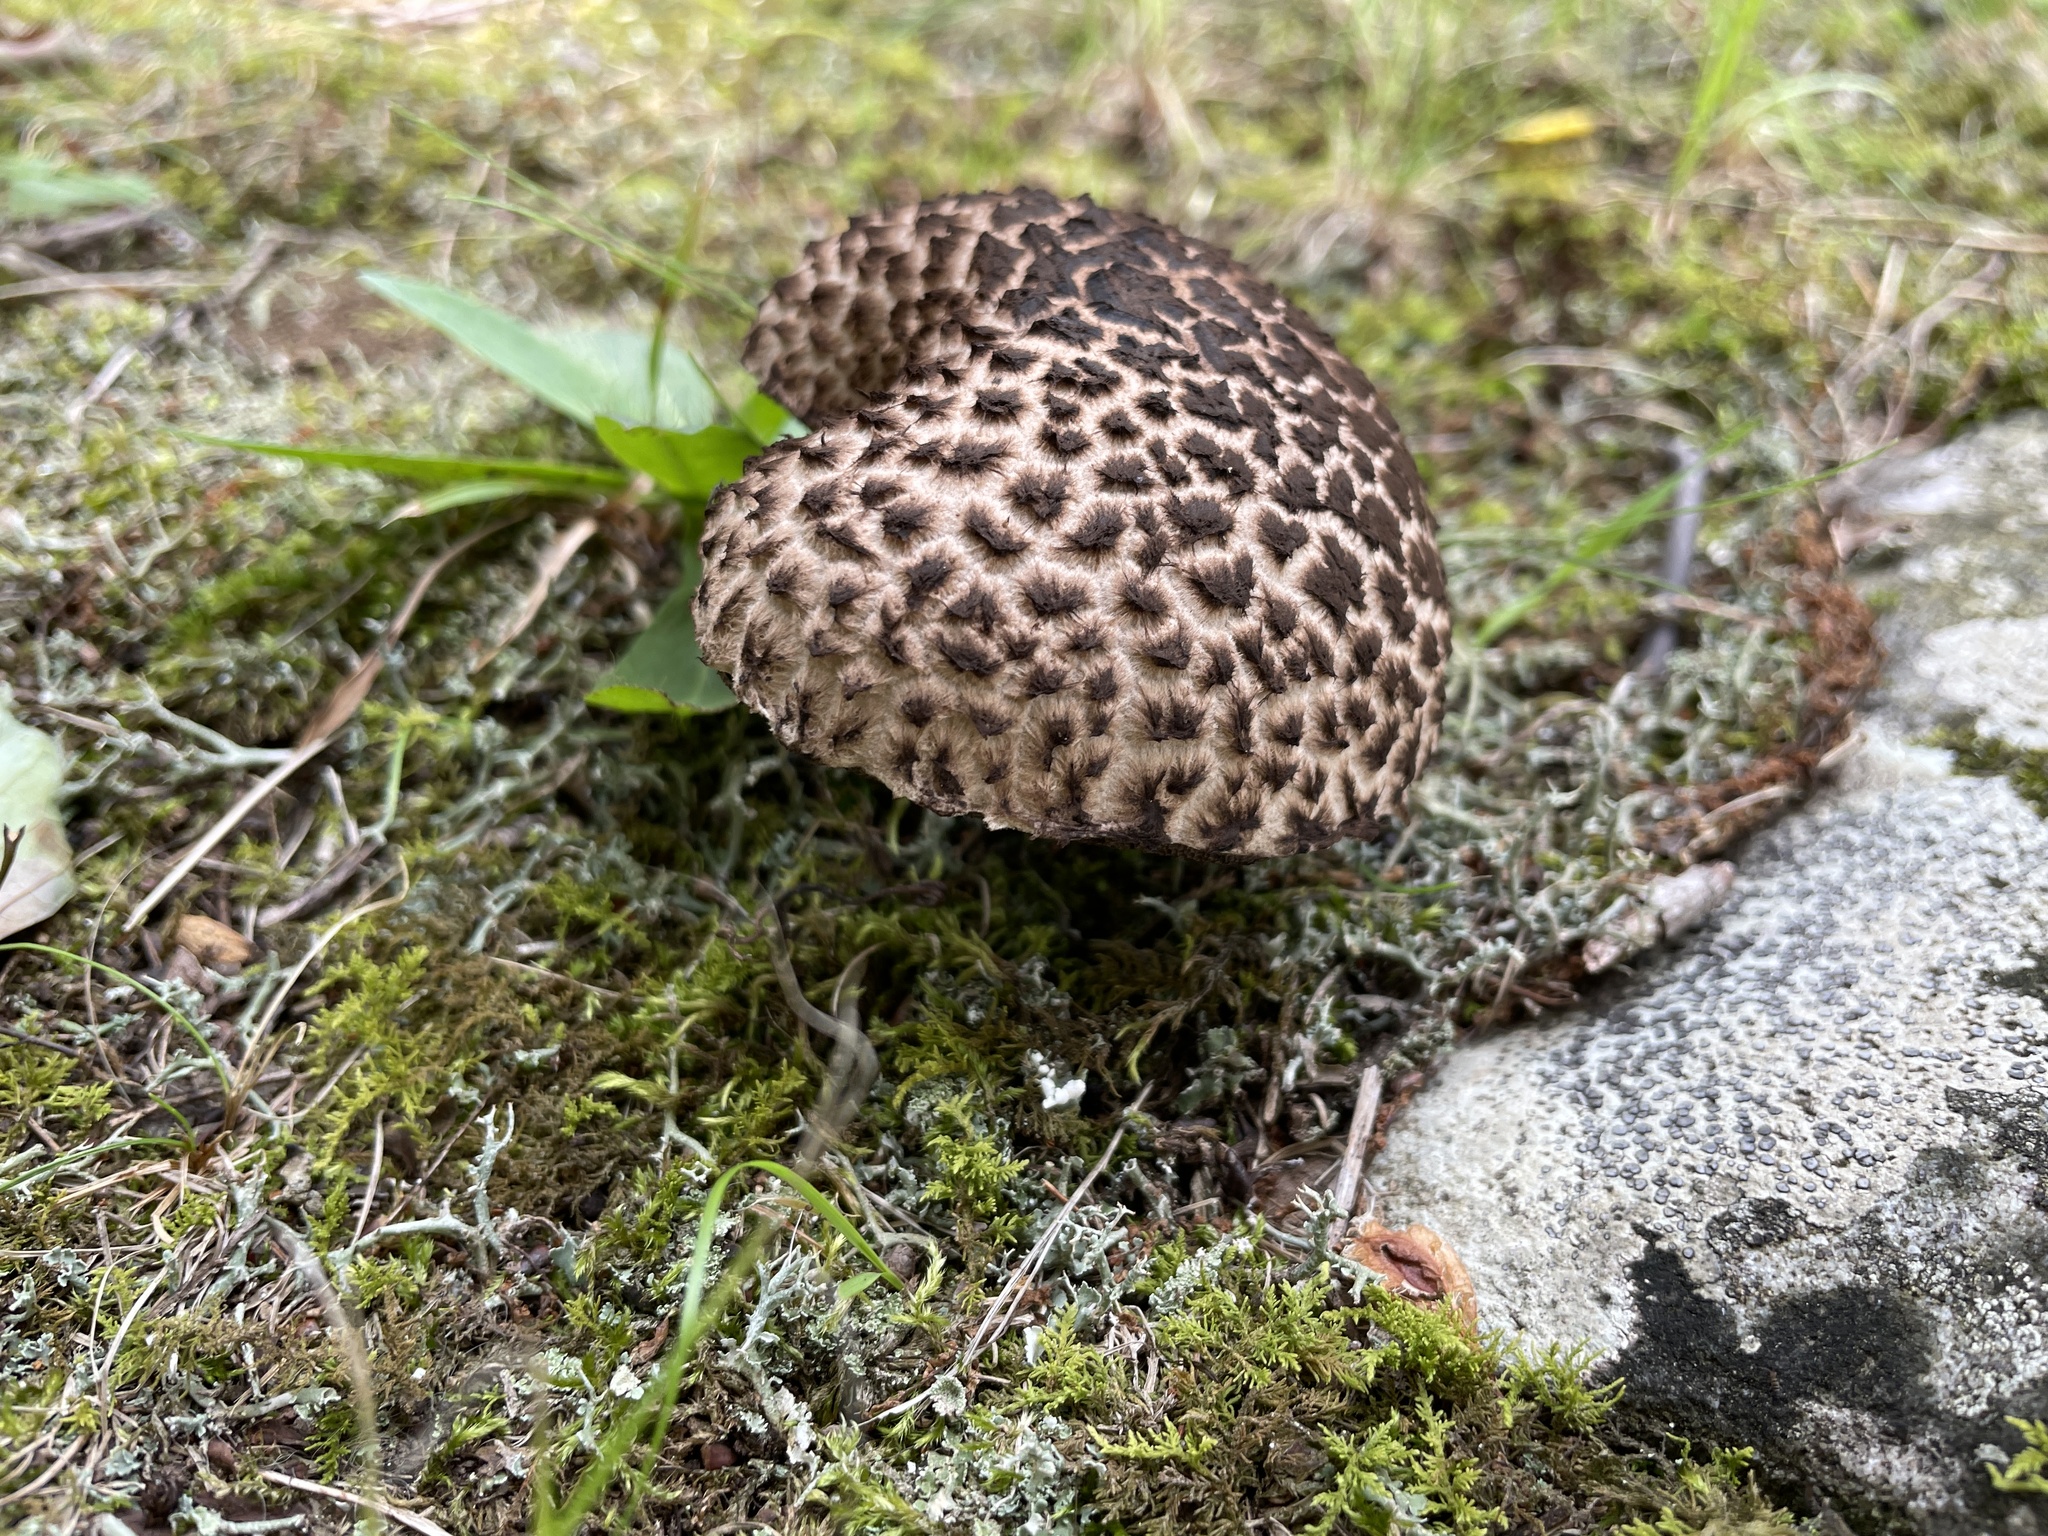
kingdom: Fungi
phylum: Basidiomycota
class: Agaricomycetes
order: Boletales
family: Boletaceae
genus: Strobilomyces
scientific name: Strobilomyces strobilaceus
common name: Old man of the woods
